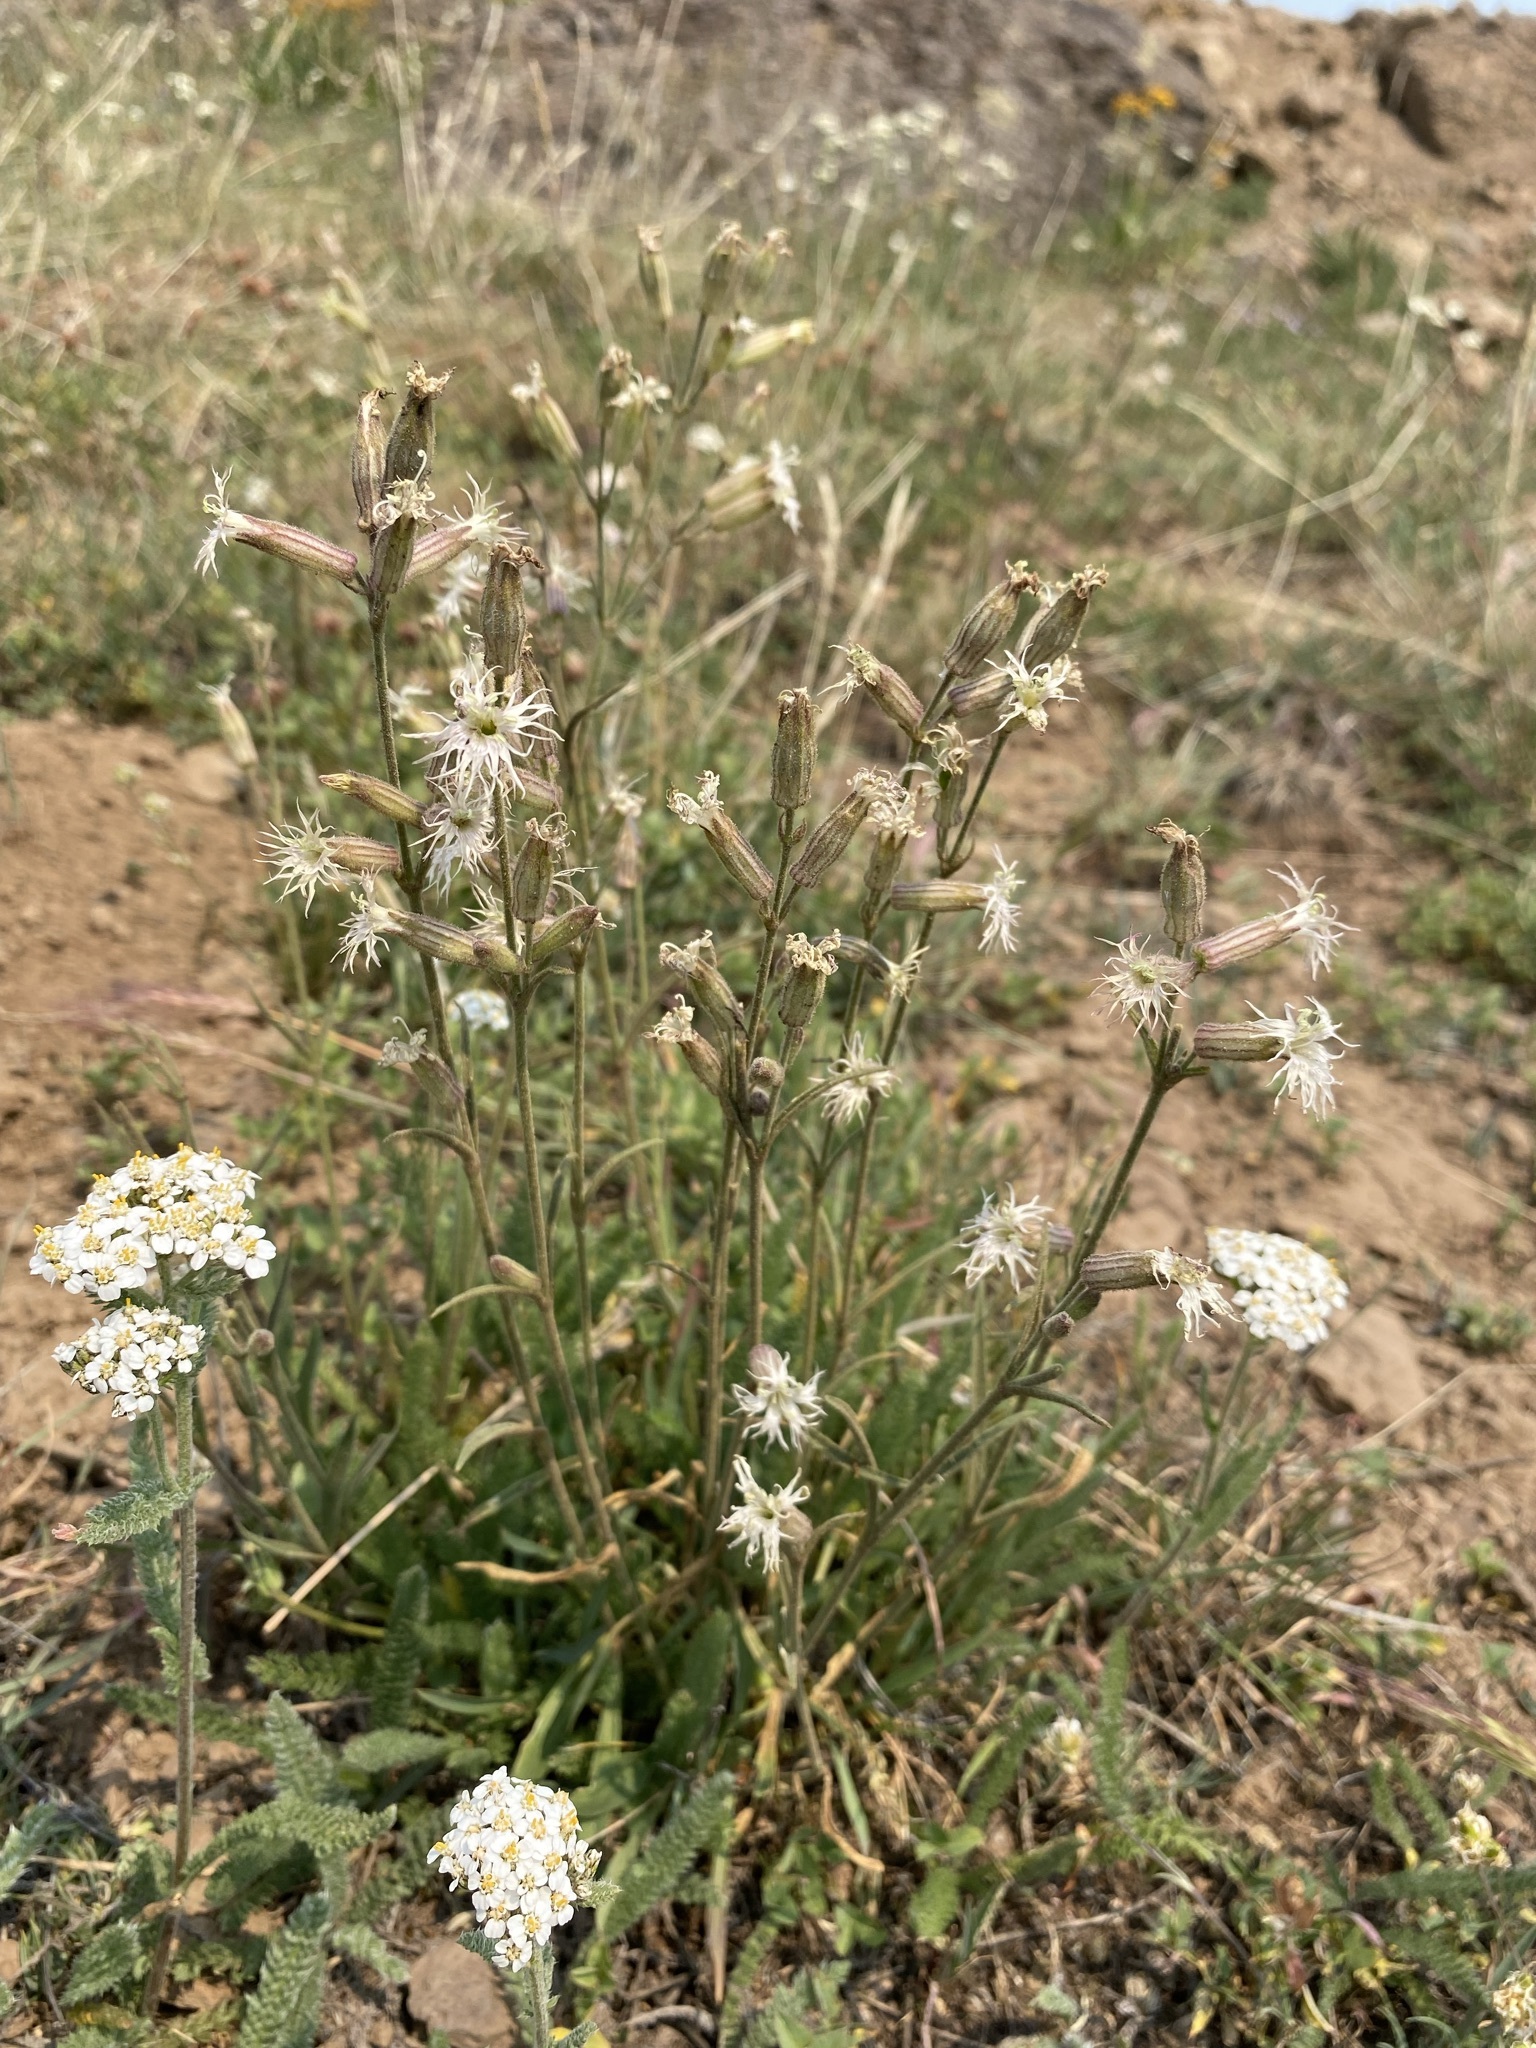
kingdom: Plantae
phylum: Tracheophyta
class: Magnoliopsida
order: Caryophyllales
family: Caryophyllaceae
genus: Silene
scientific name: Silene oregana
